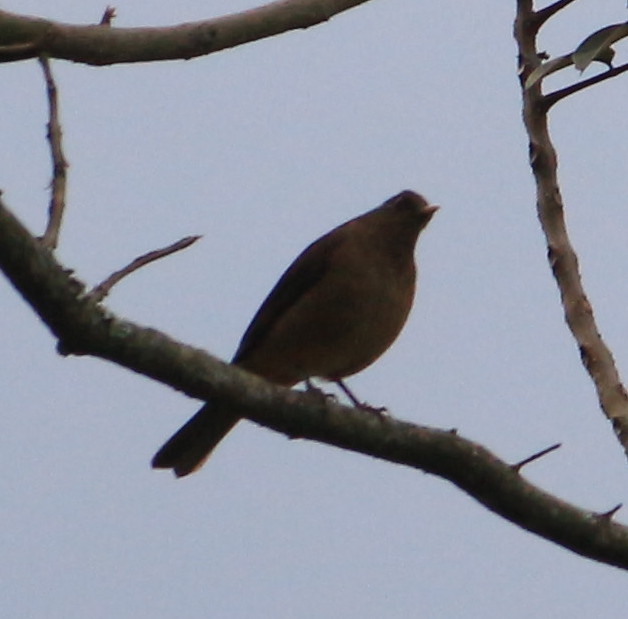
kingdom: Animalia
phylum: Chordata
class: Aves
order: Passeriformes
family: Turdidae
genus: Turdus
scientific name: Turdus grayi
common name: Clay-colored thrush
